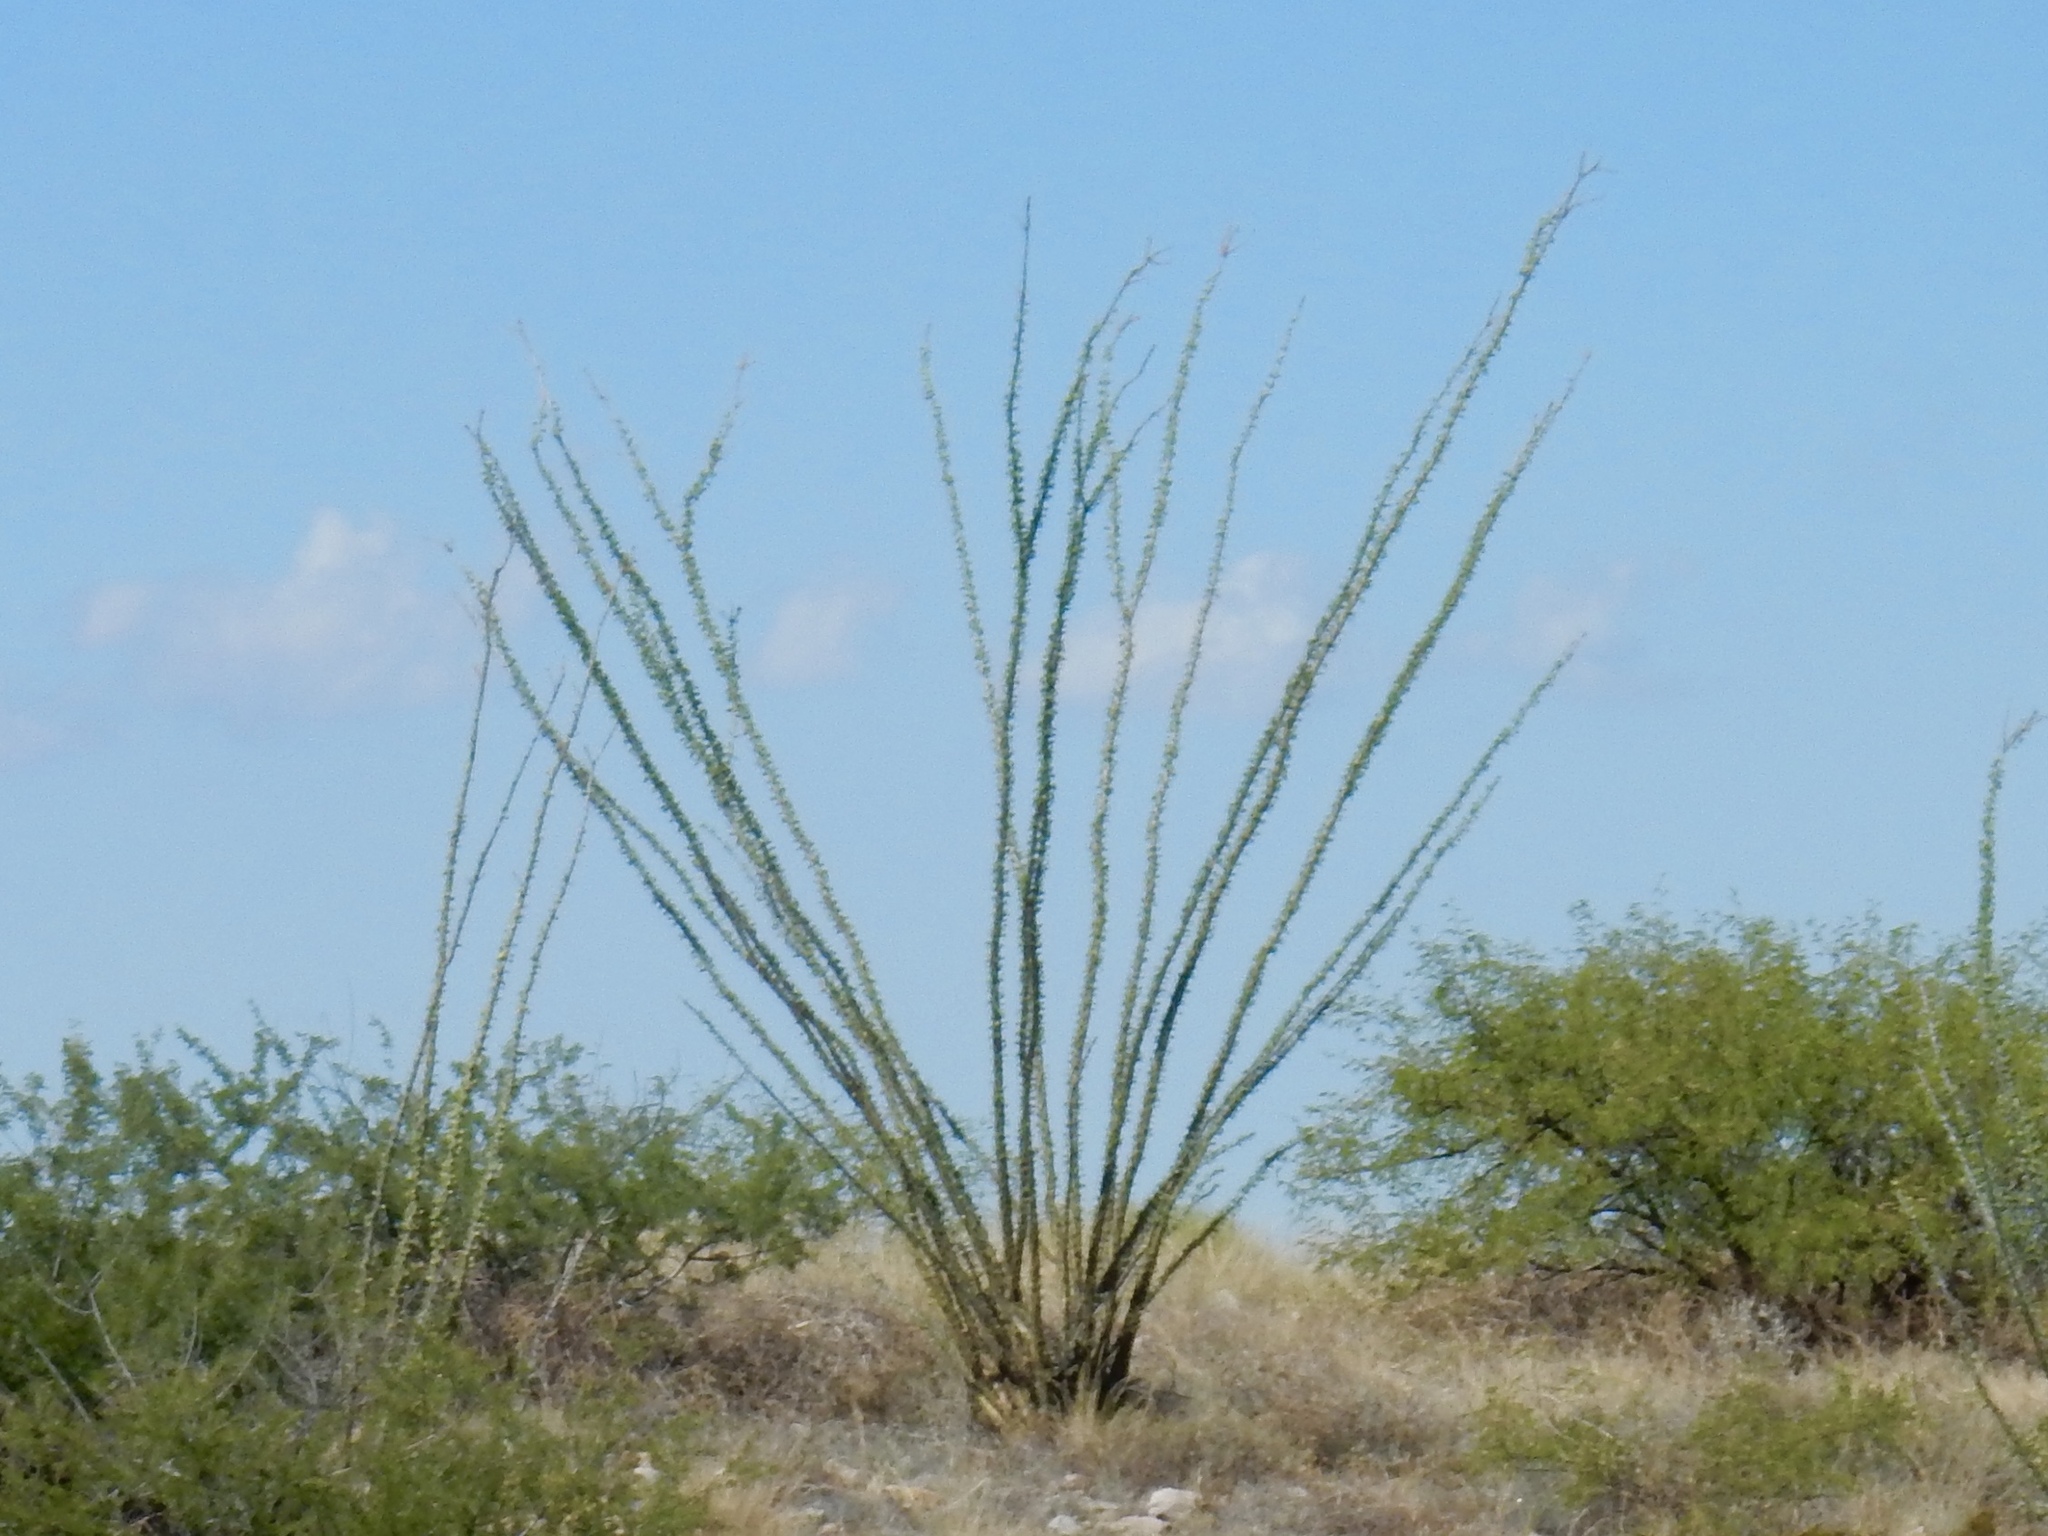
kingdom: Plantae
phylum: Tracheophyta
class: Magnoliopsida
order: Ericales
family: Fouquieriaceae
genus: Fouquieria
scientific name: Fouquieria splendens
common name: Vine-cactus
